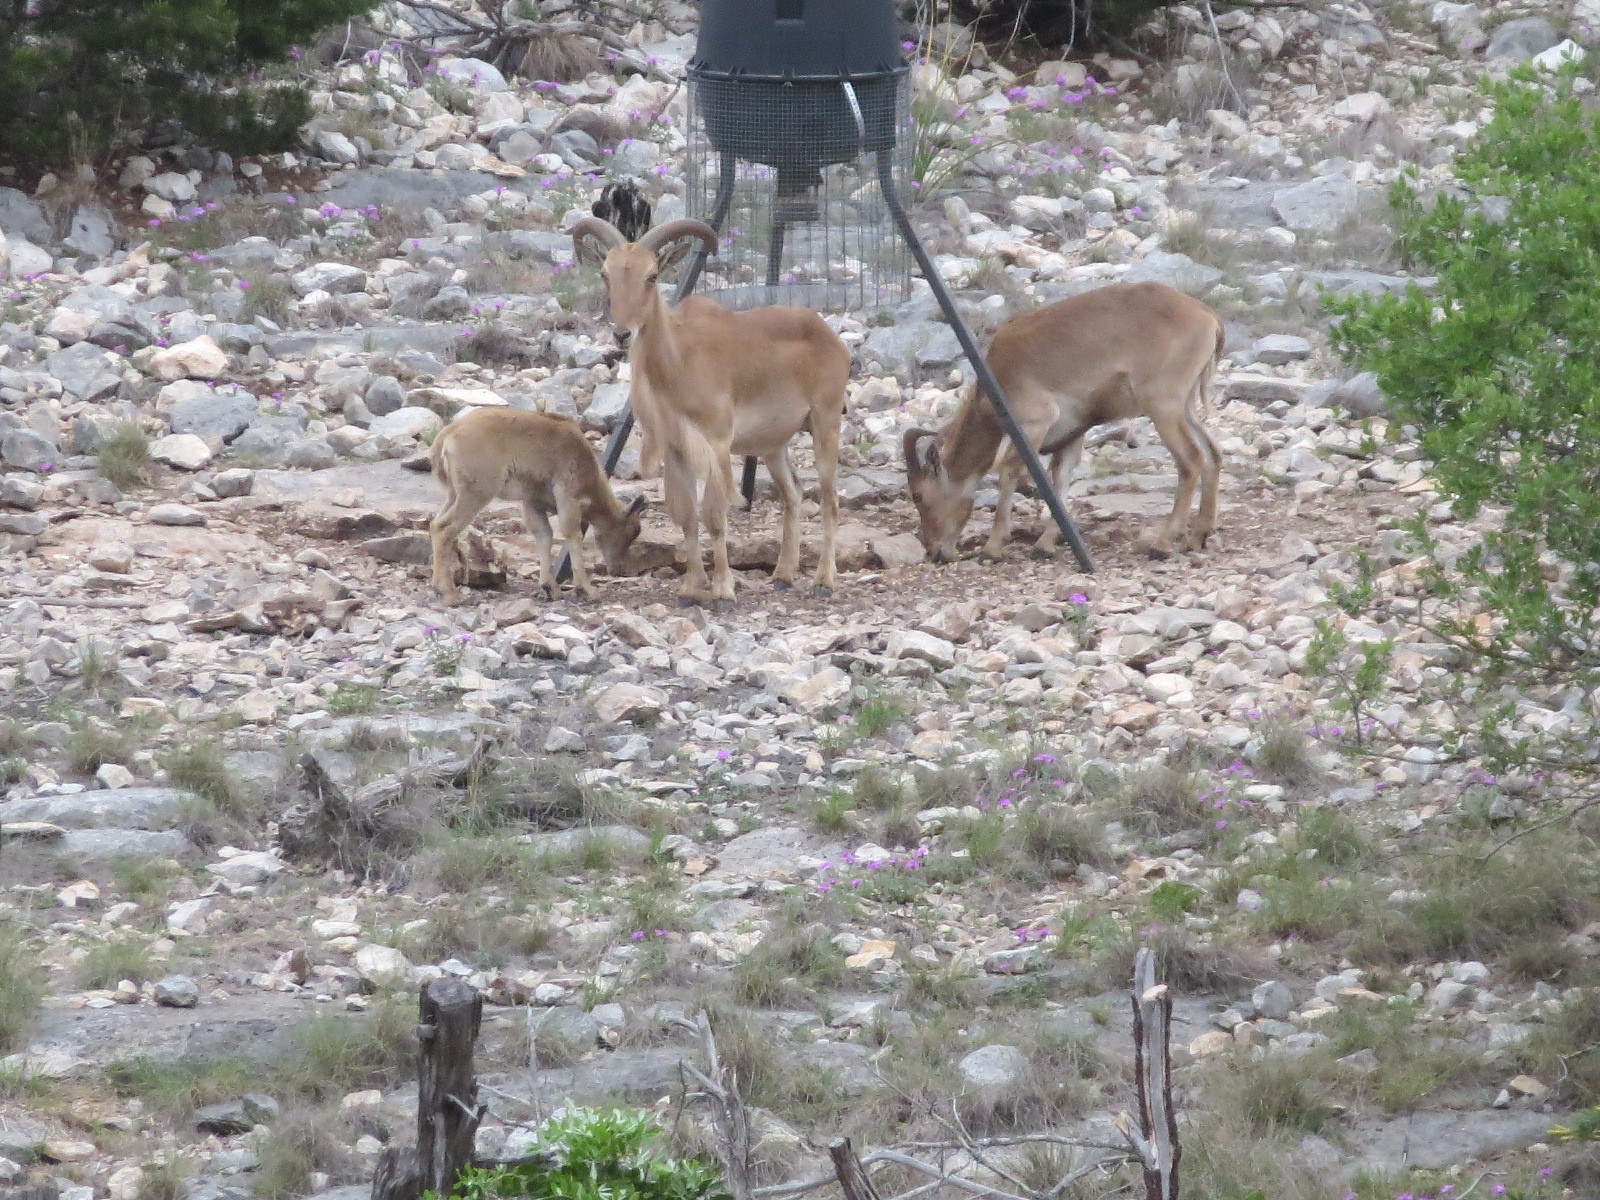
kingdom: Animalia
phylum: Chordata
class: Mammalia
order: Artiodactyla
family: Bovidae
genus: Ammotragus
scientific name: Ammotragus lervia
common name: Barbary sheep
